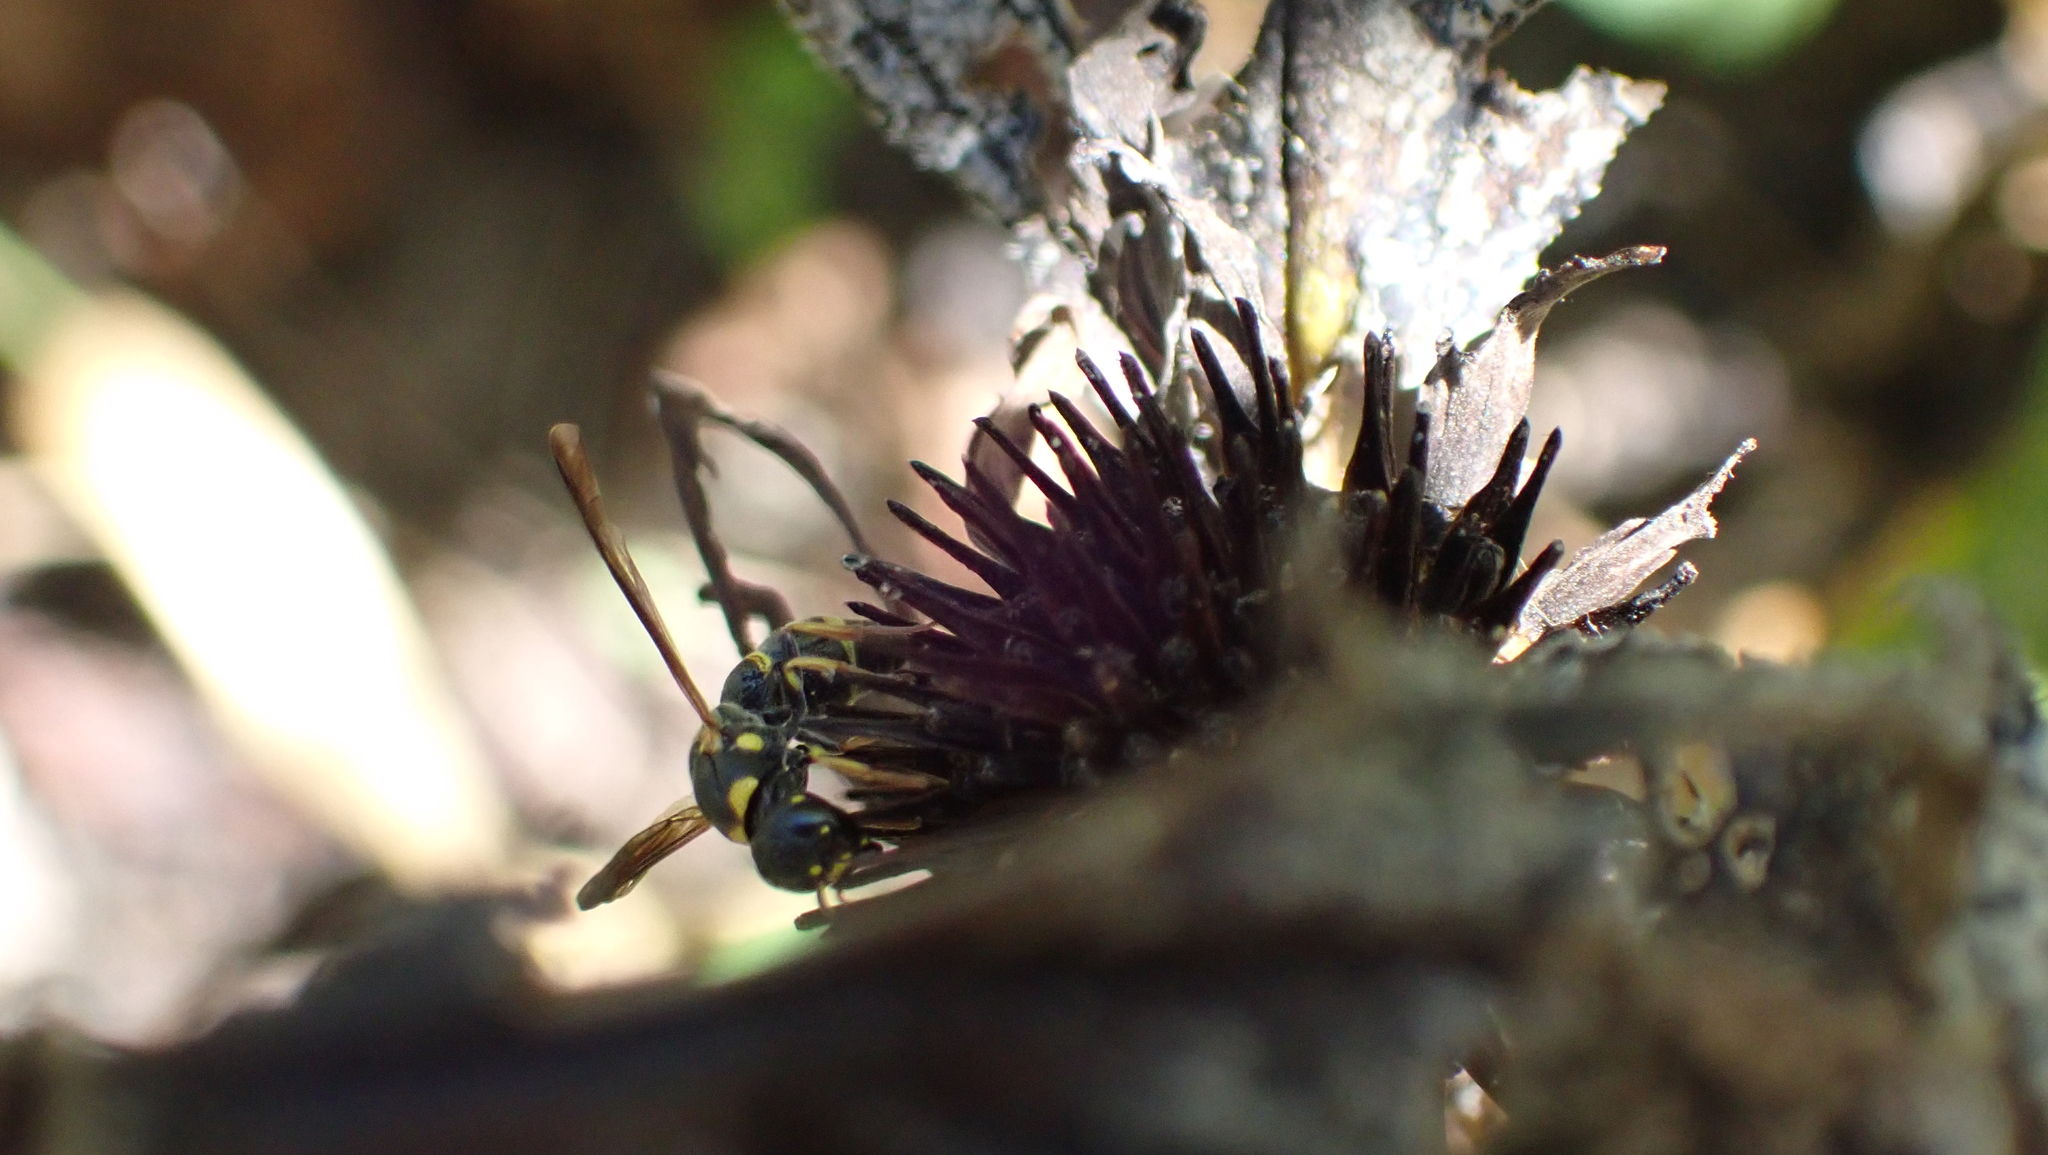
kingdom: Animalia
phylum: Arthropoda
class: Insecta
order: Hymenoptera
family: Eumenidae
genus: Parancistrocerus
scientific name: Parancistrocerus perennis
